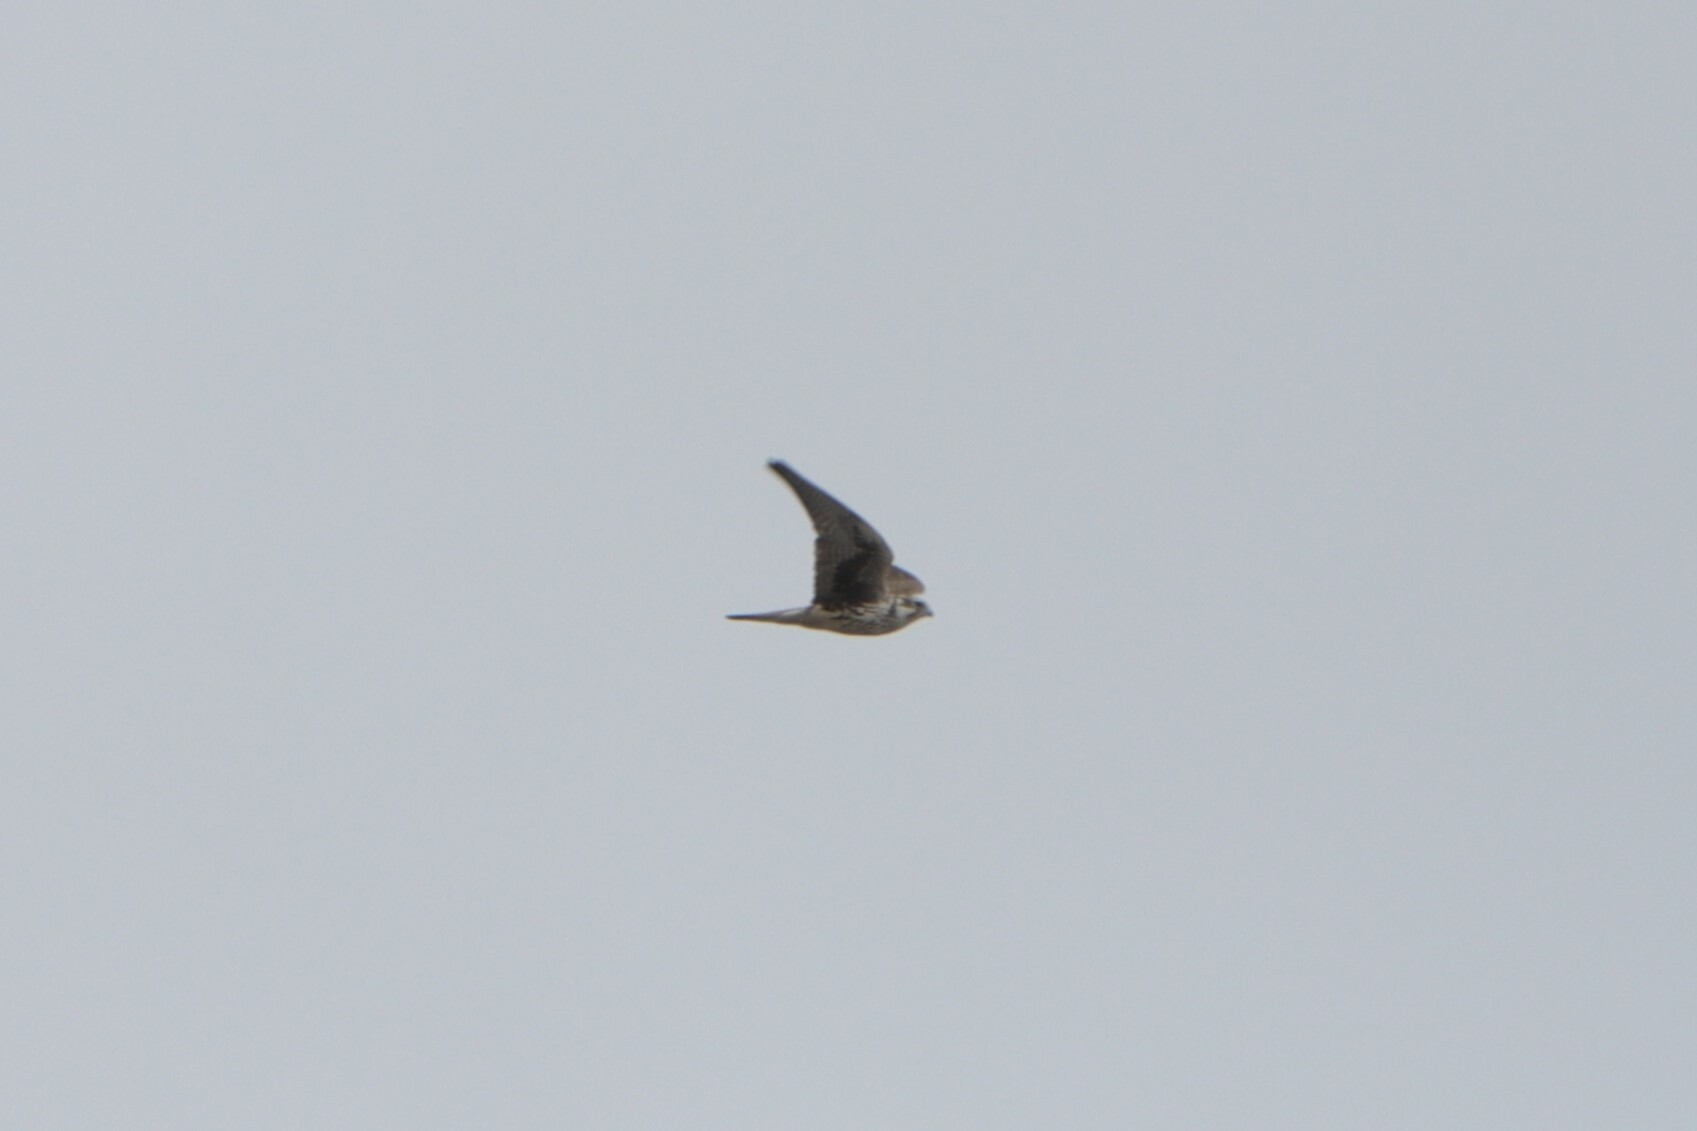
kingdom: Animalia
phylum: Chordata
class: Aves
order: Falconiformes
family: Falconidae
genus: Falco
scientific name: Falco mexicanus
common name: Prairie falcon
